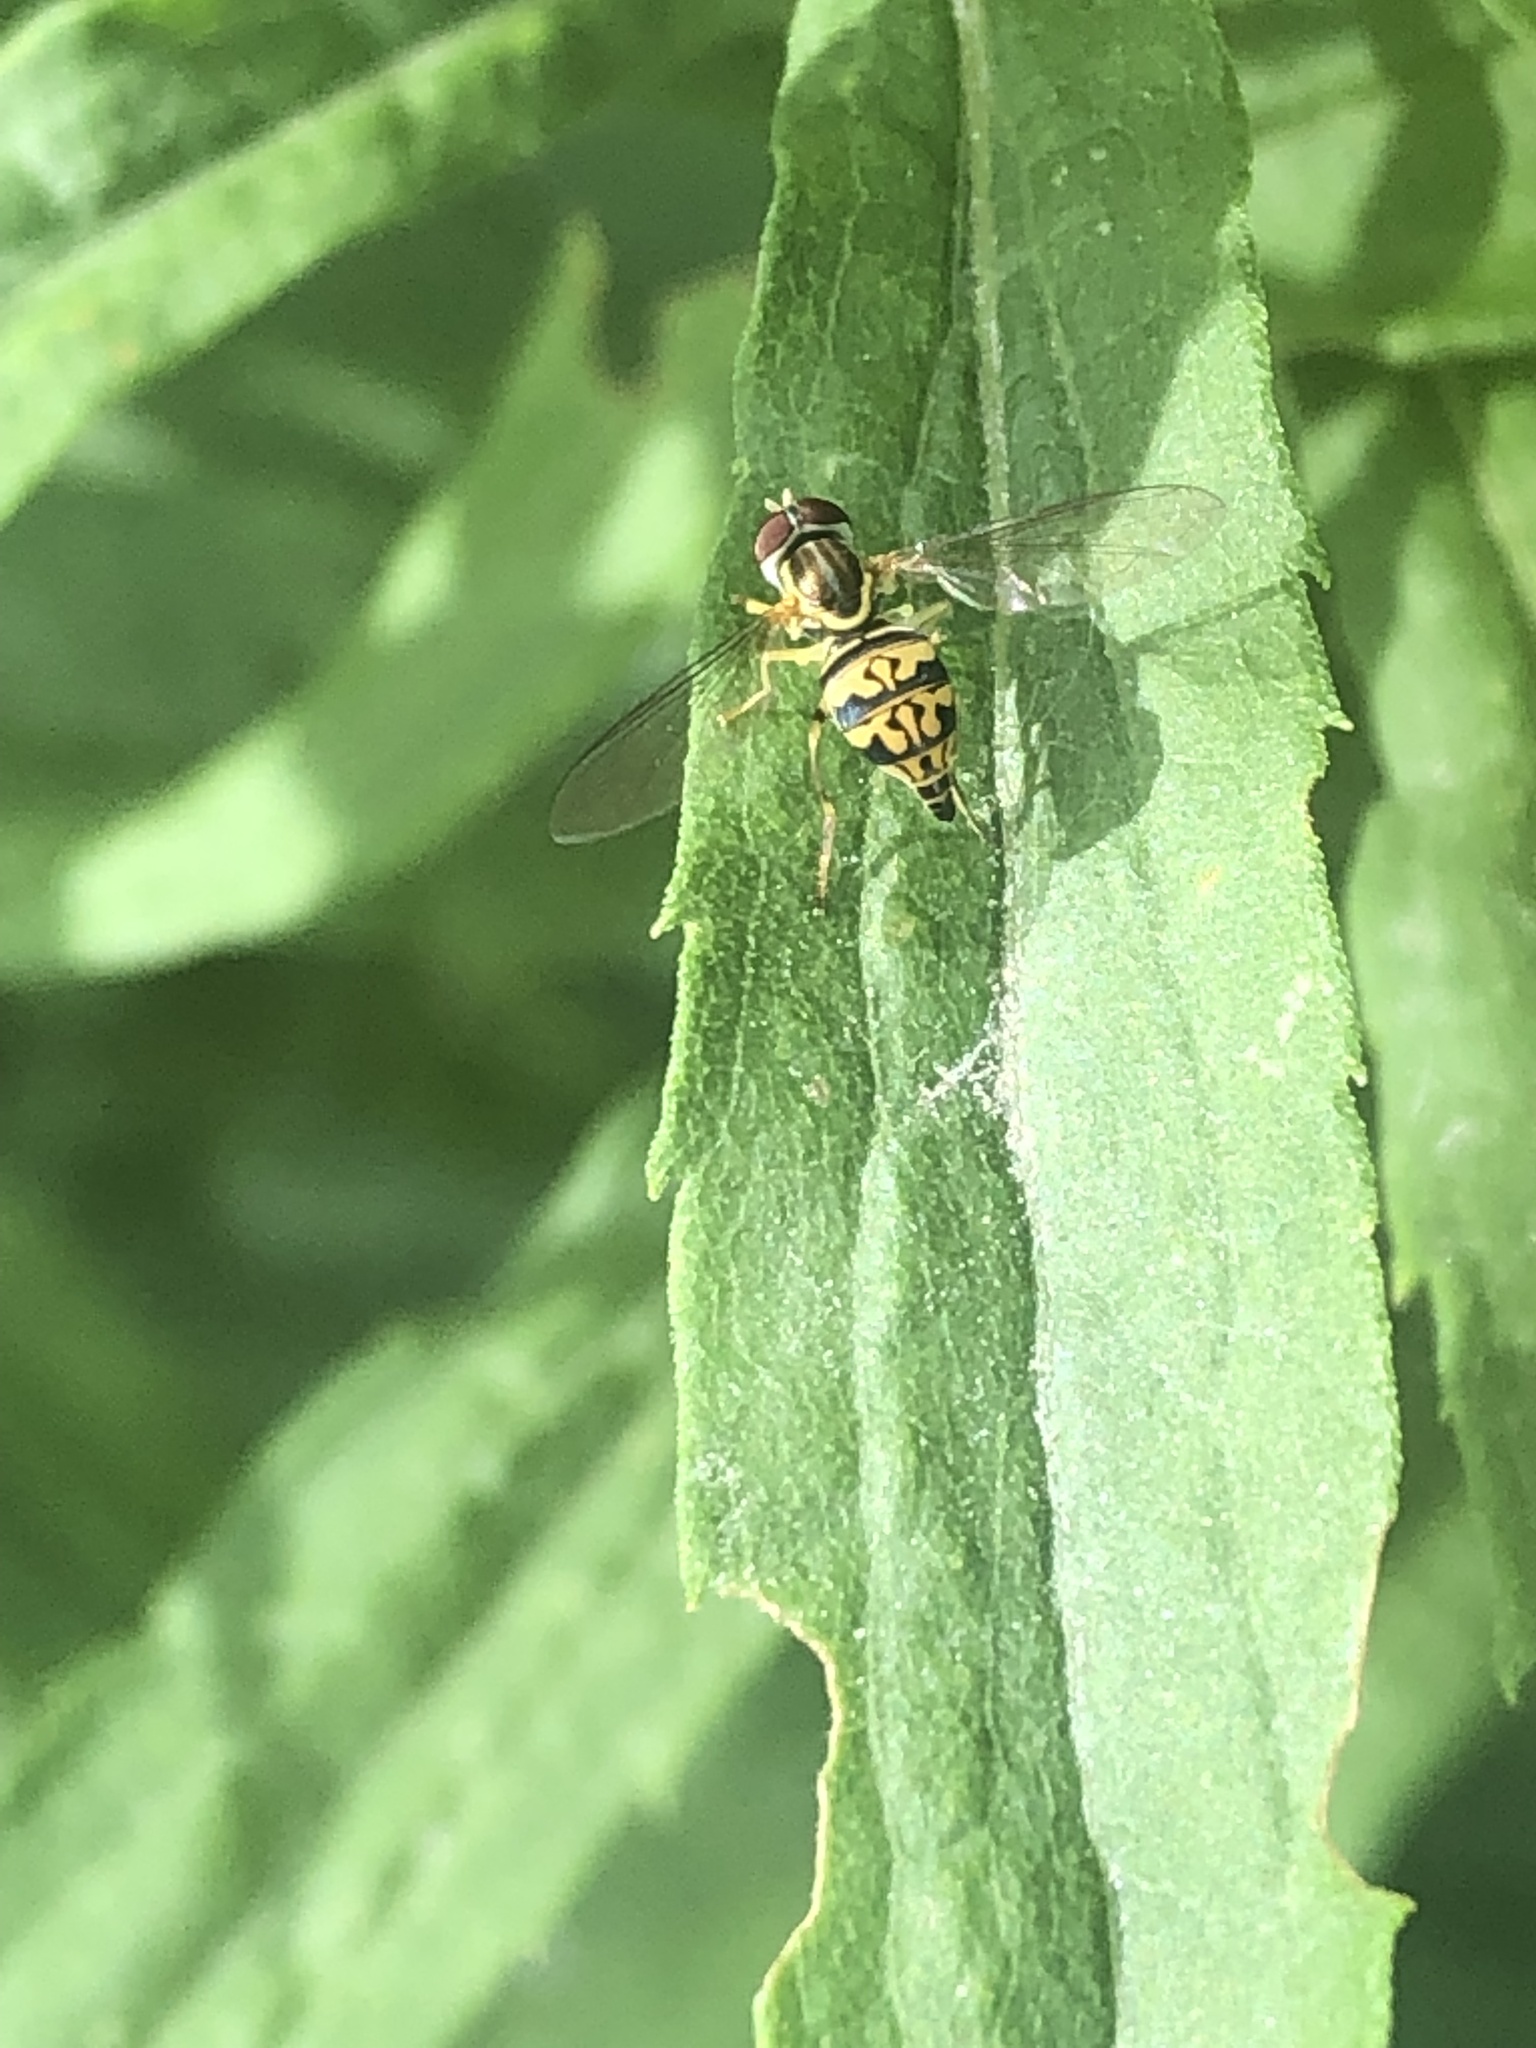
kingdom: Animalia
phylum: Arthropoda
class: Insecta
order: Diptera
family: Syrphidae
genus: Toxomerus
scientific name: Toxomerus geminatus
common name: Eastern calligrapher
